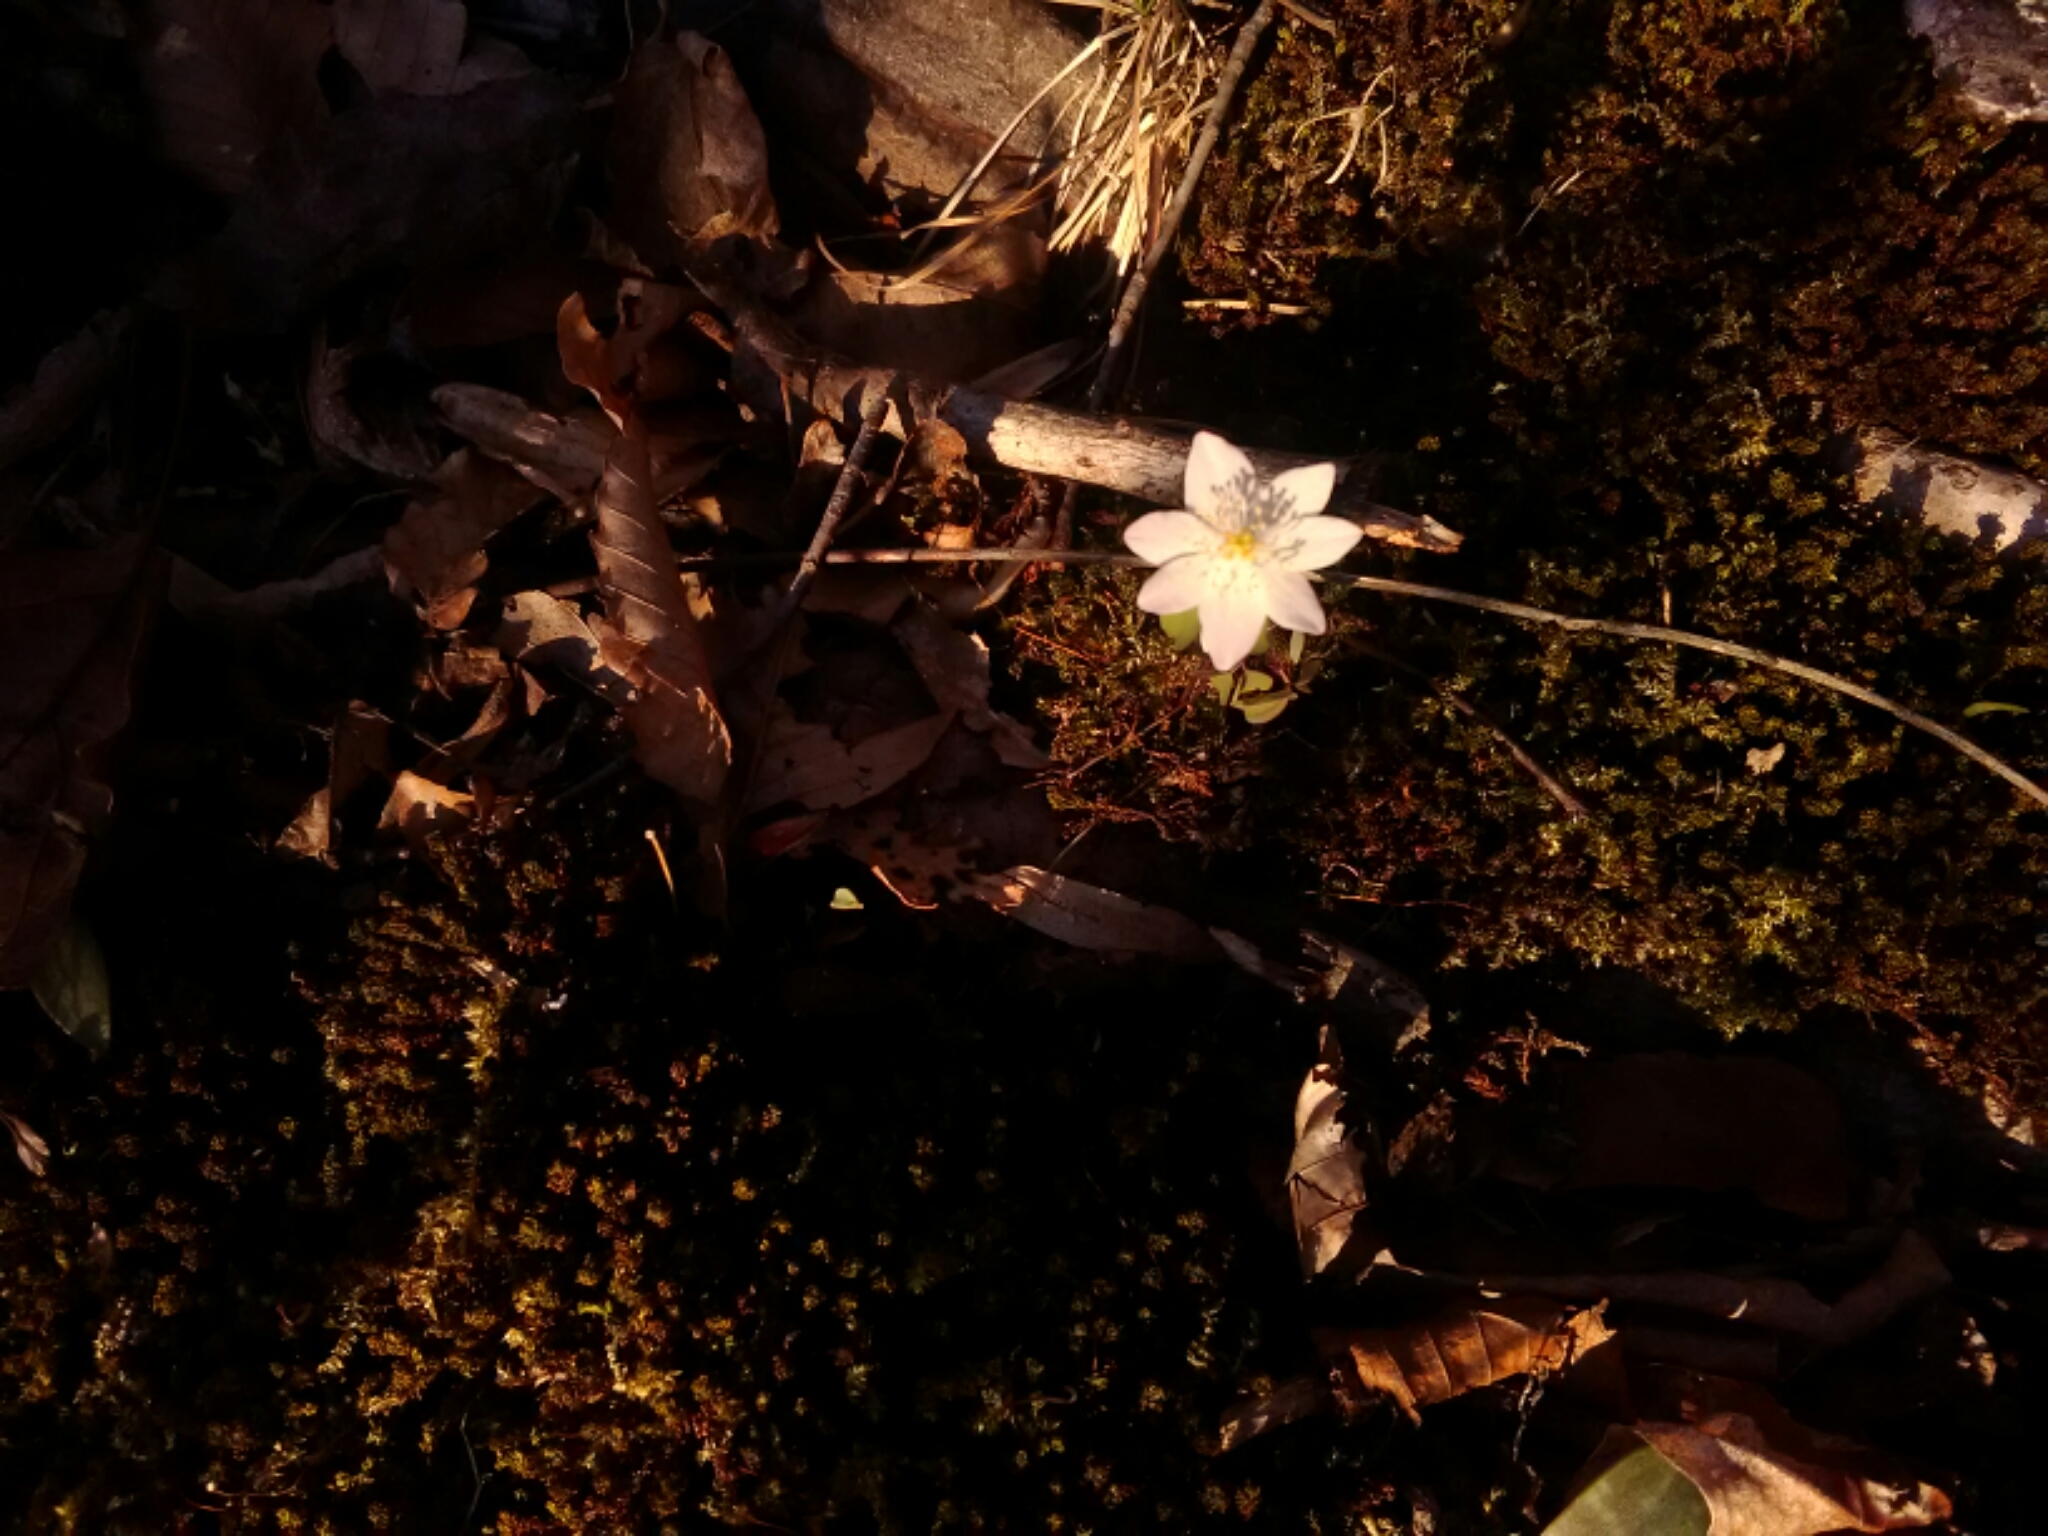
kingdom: Plantae
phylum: Tracheophyta
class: Magnoliopsida
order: Ranunculales
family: Ranunculaceae
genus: Thalictrum
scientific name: Thalictrum thalictroides
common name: Rue-anemone
